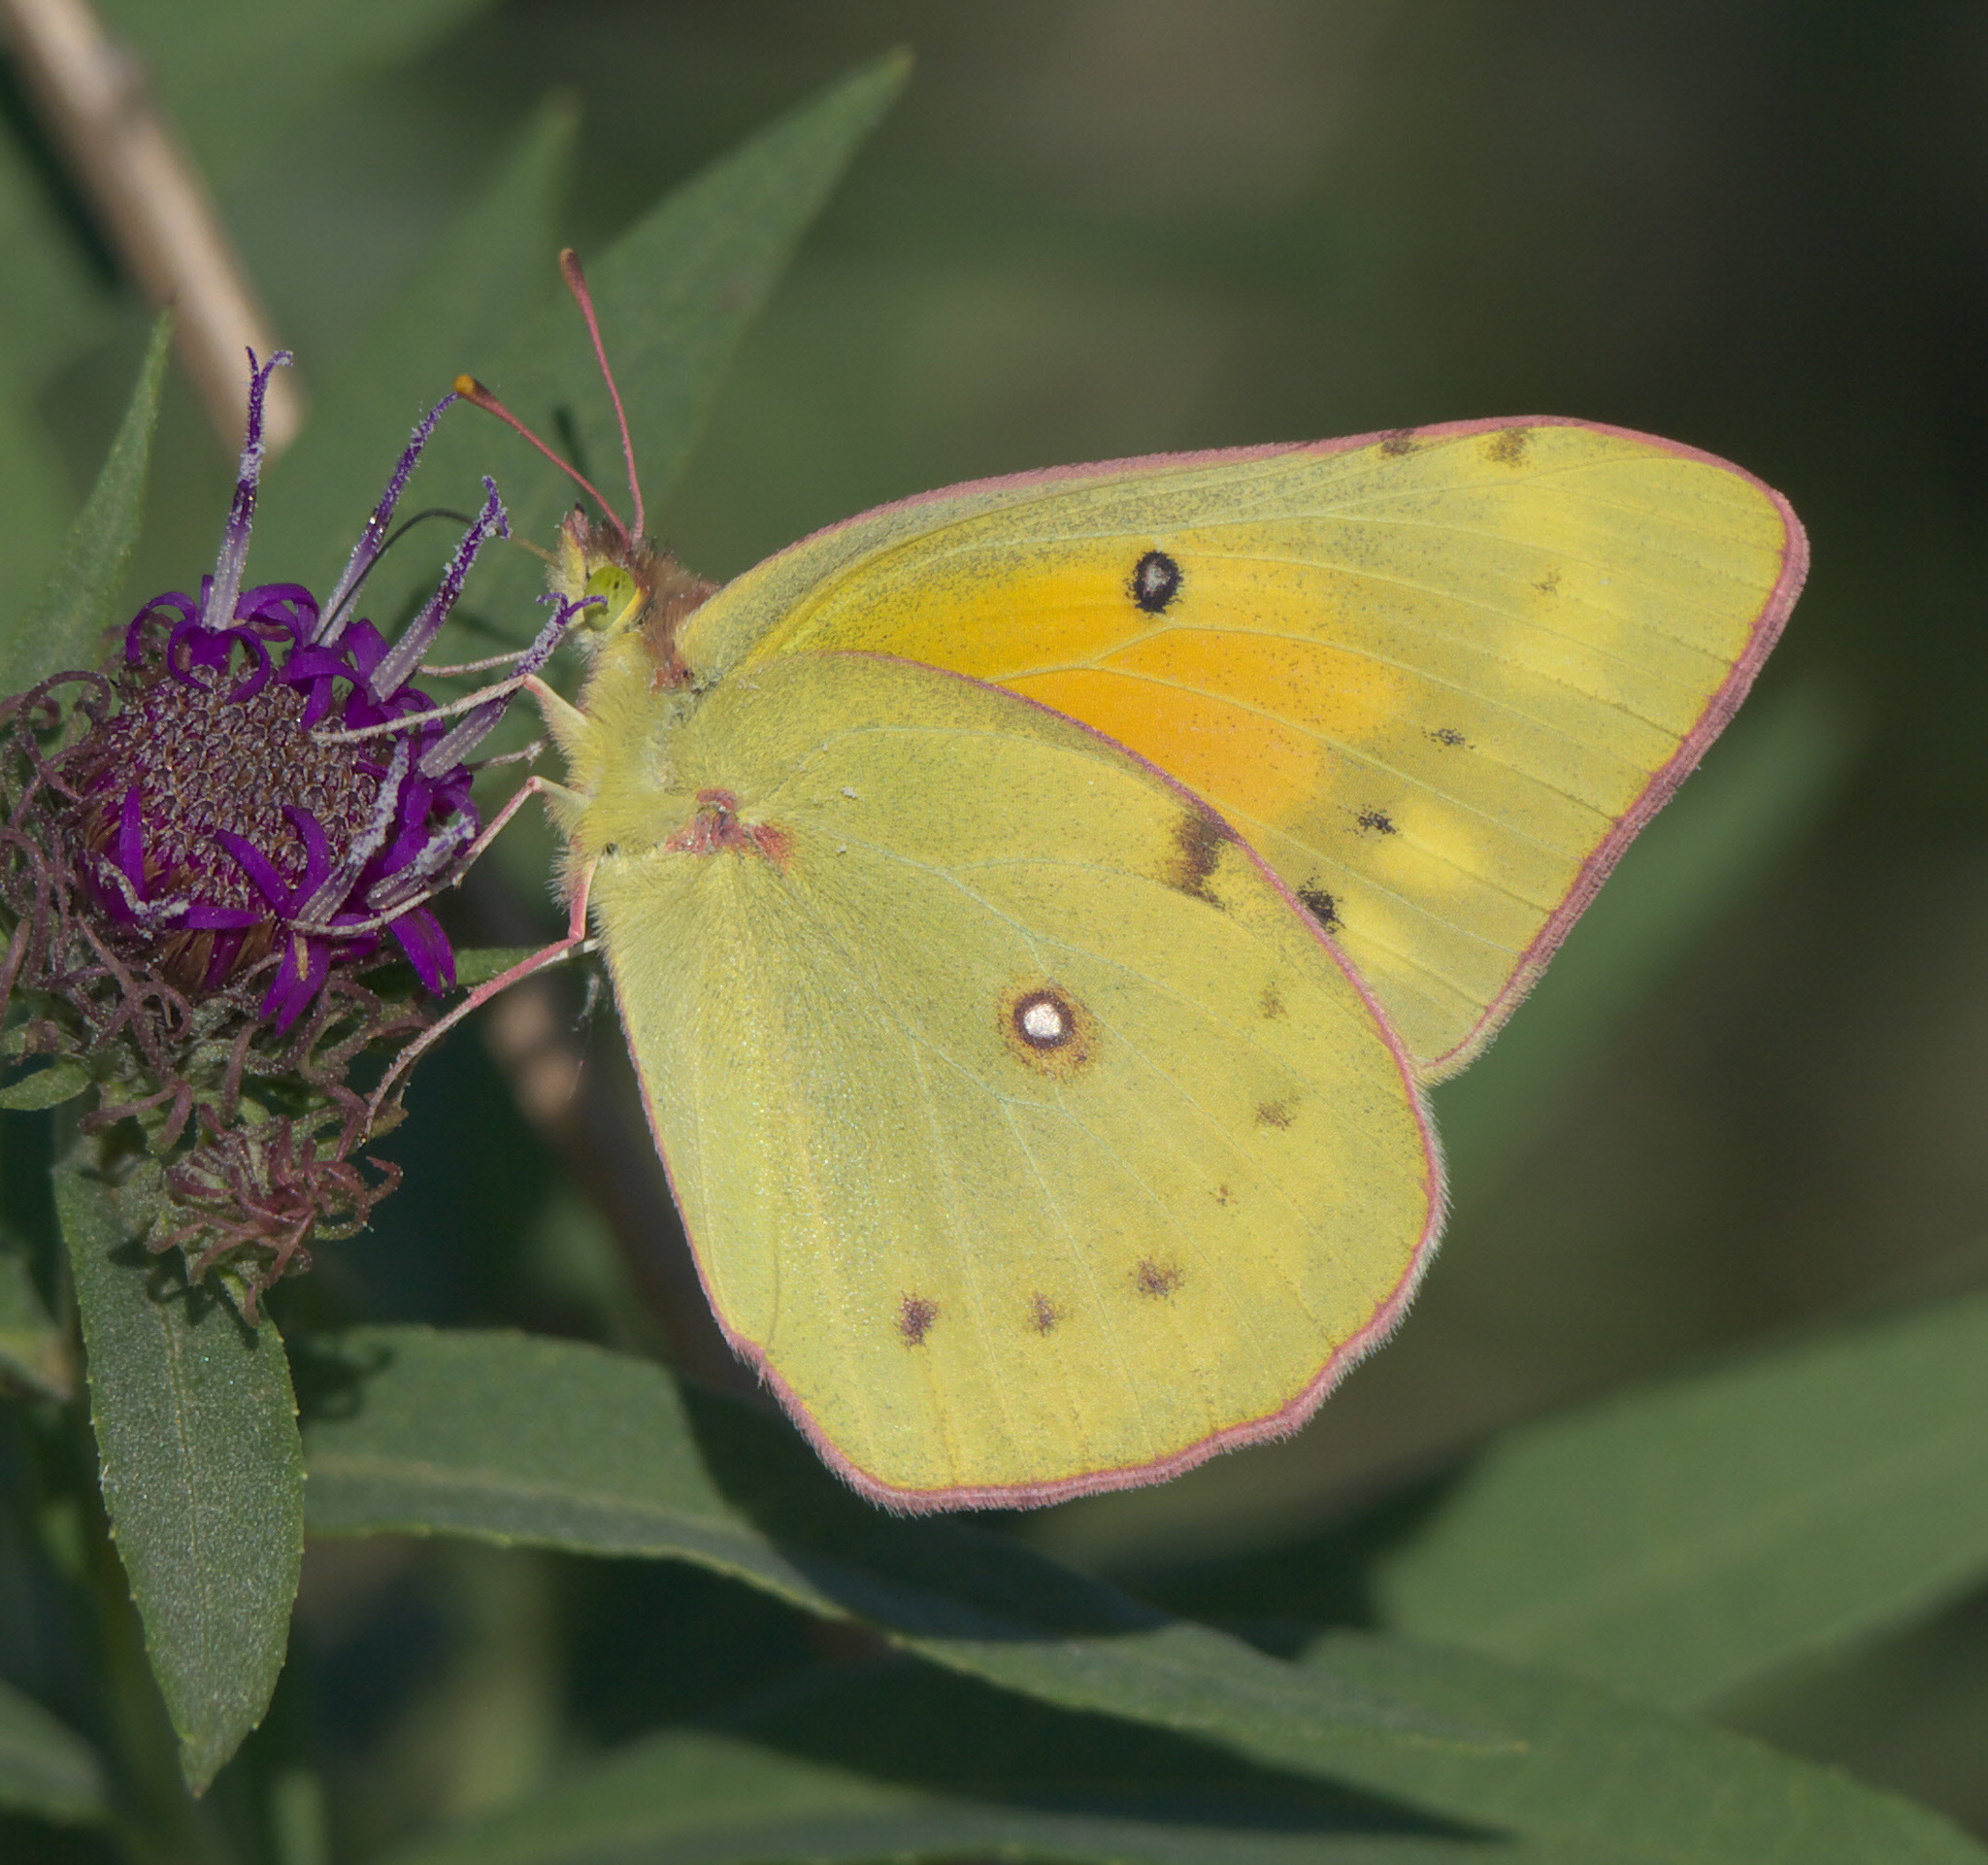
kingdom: Animalia
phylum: Arthropoda
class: Insecta
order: Lepidoptera
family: Pieridae
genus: Colias
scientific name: Colias eurytheme
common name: Alfalfa butterfly
